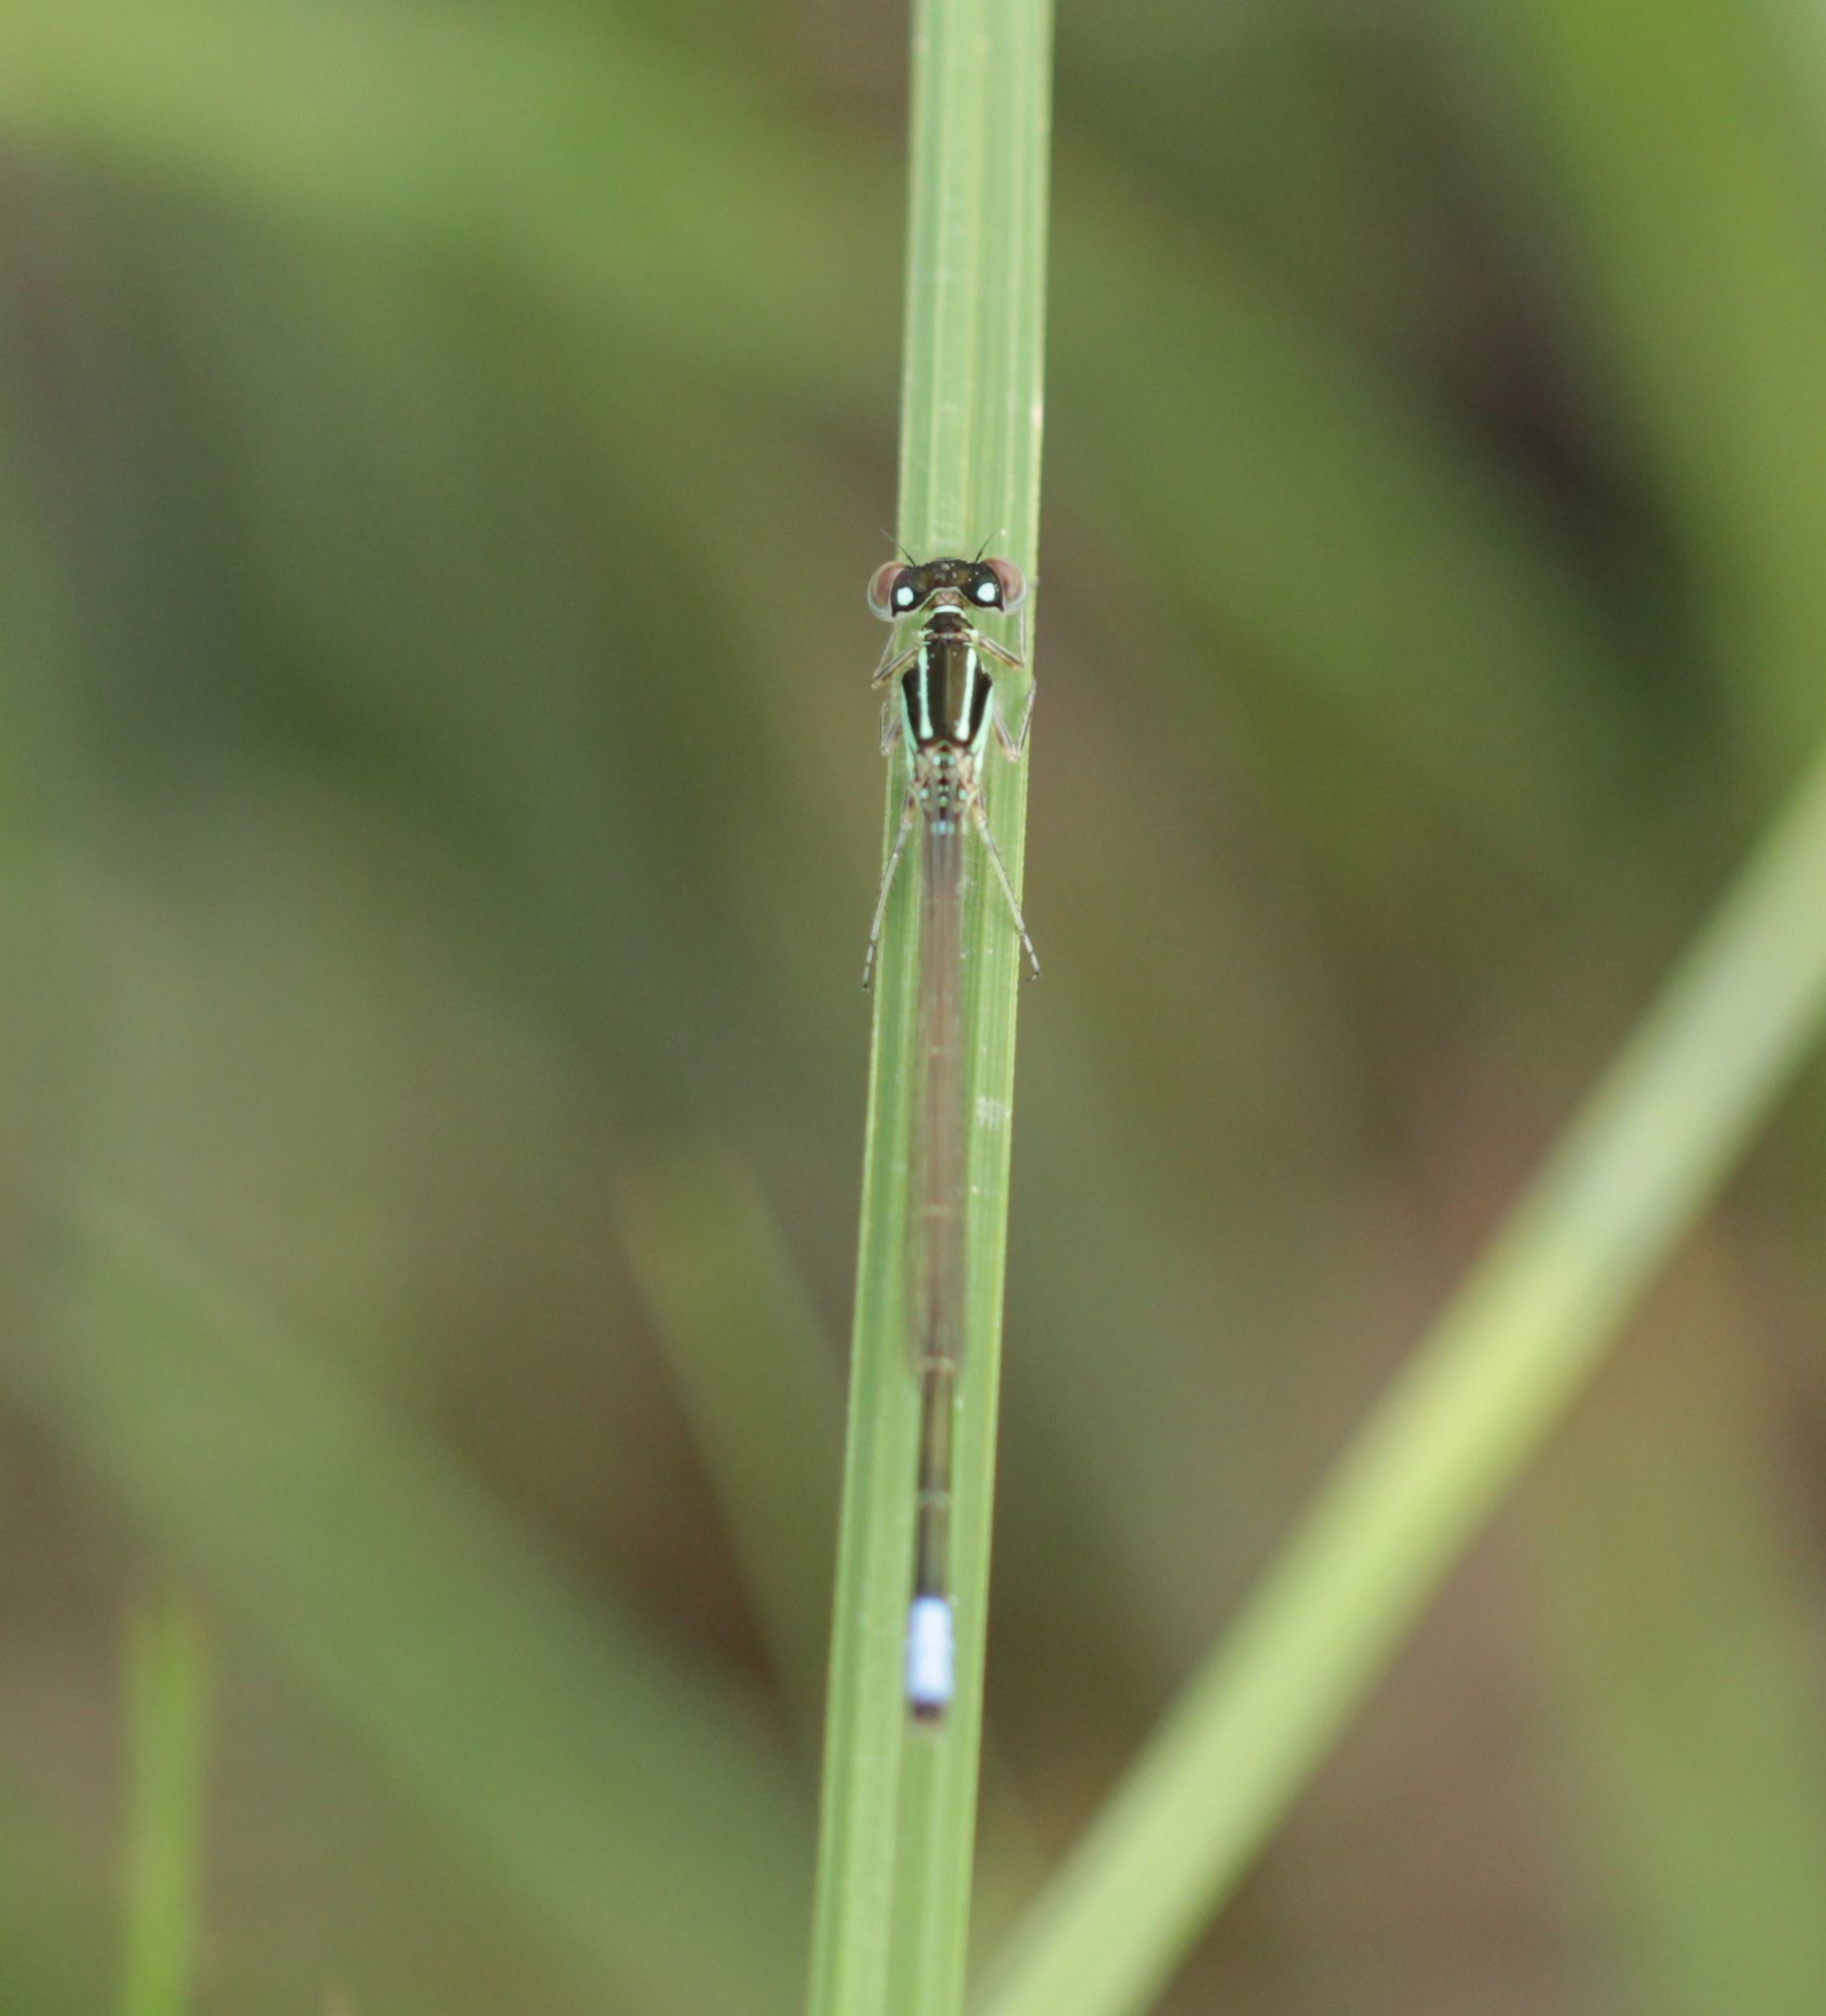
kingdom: Animalia
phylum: Arthropoda
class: Insecta
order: Odonata
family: Coenagrionidae
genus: Ischnura
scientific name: Ischnura verticalis
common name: Eastern forktail
